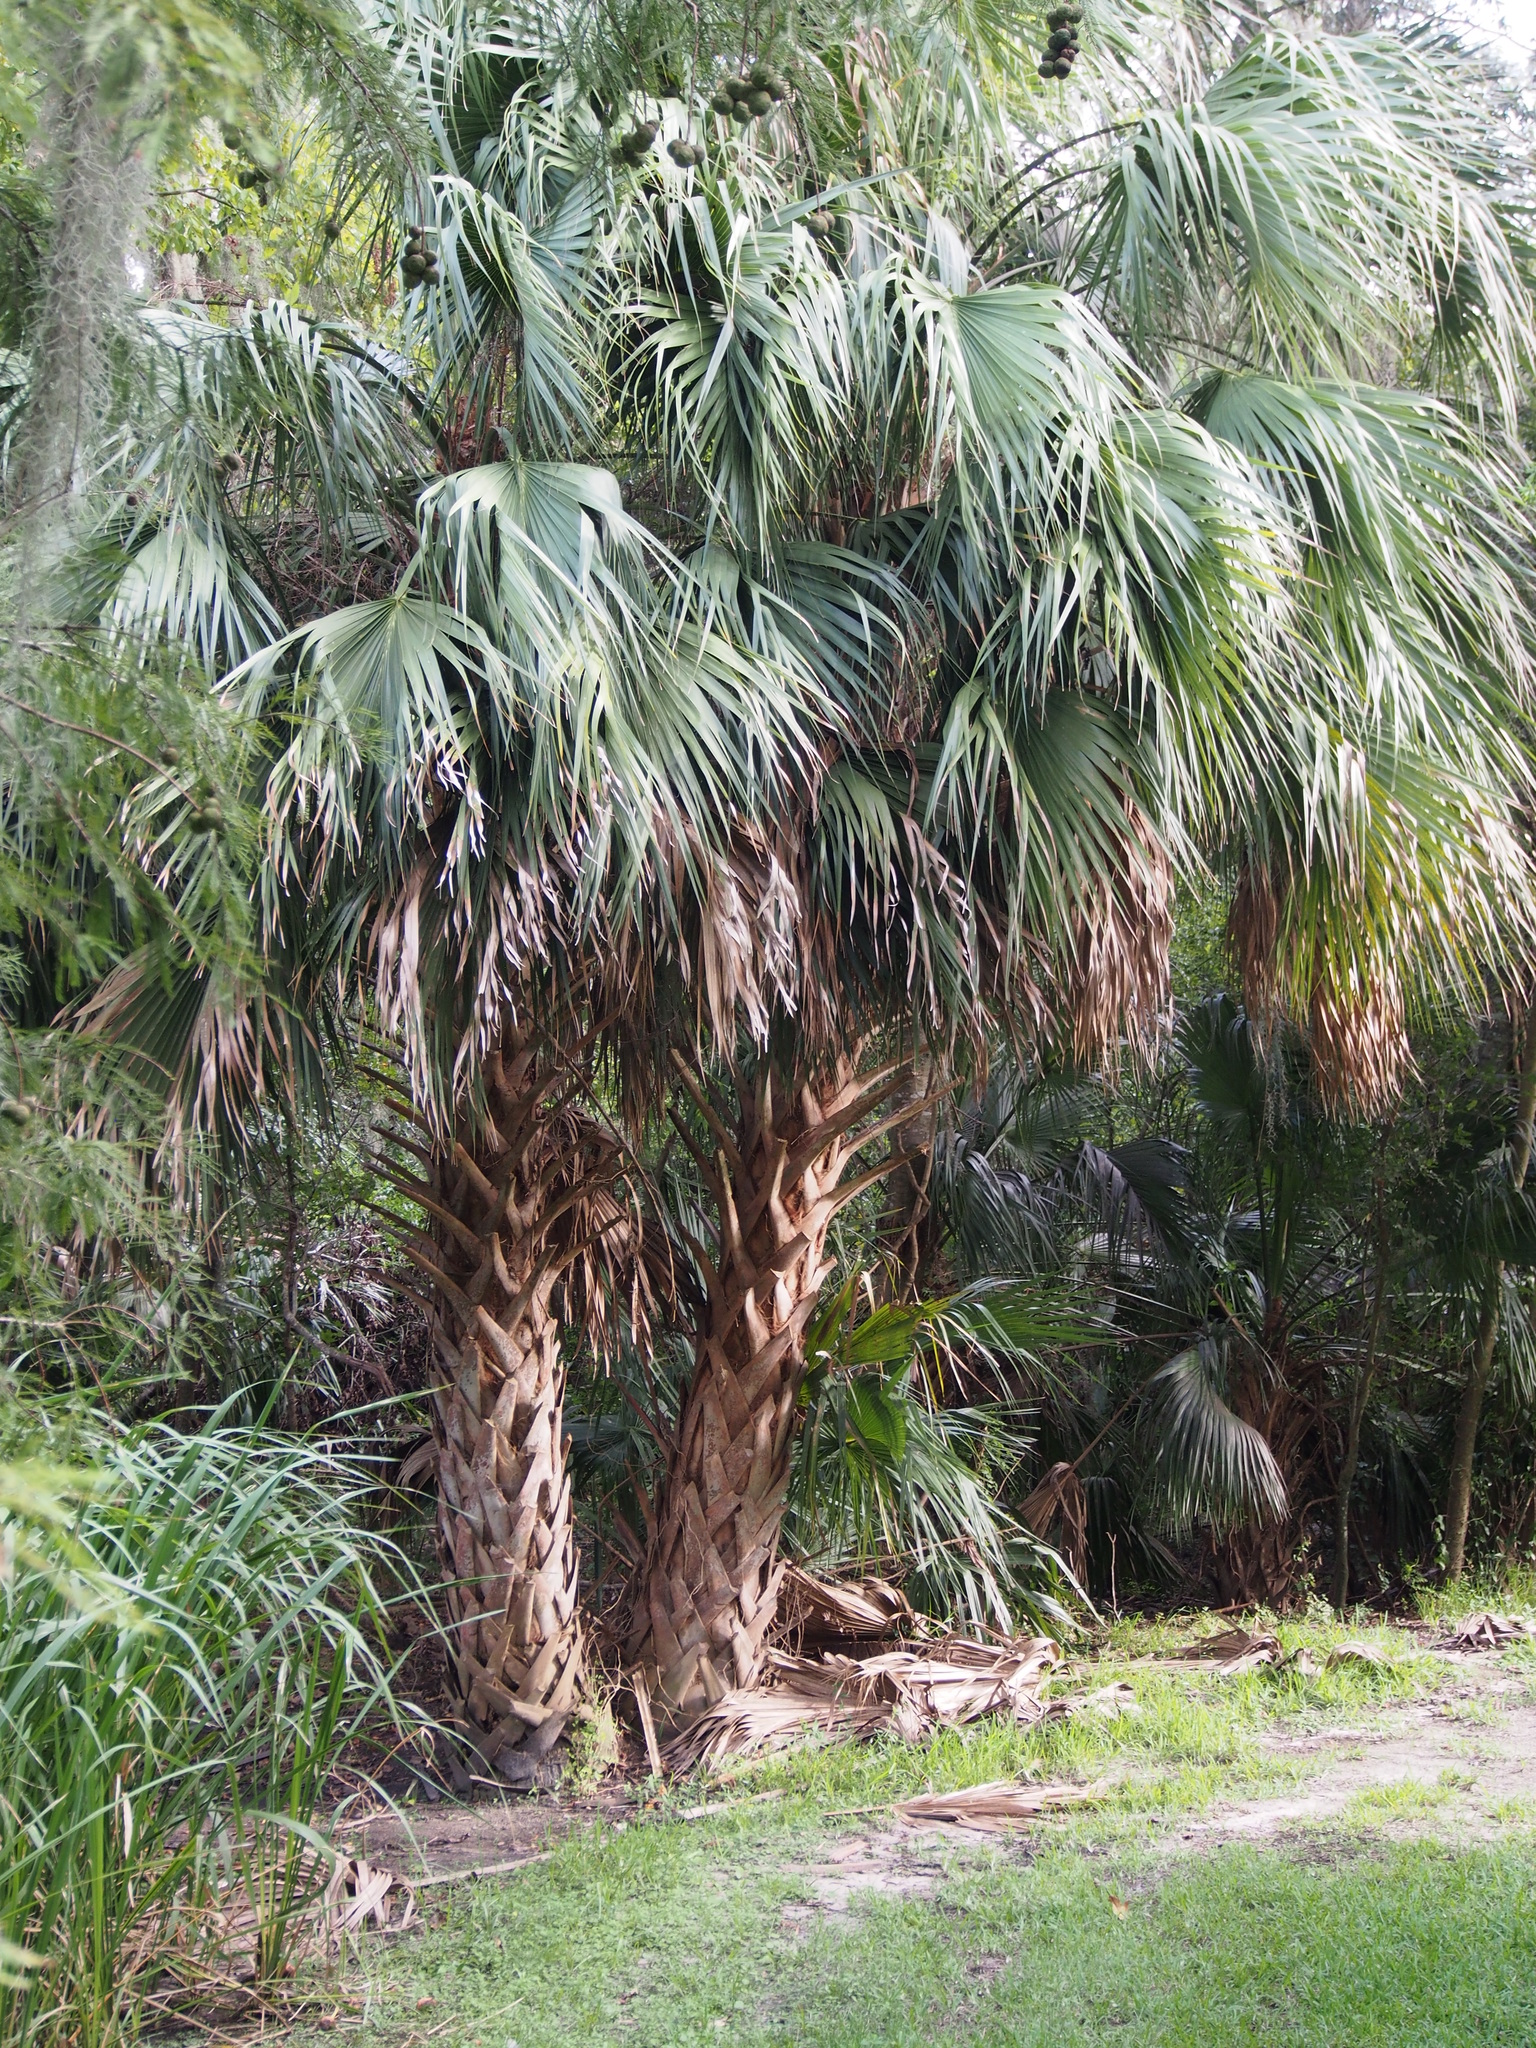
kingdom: Plantae
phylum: Tracheophyta
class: Liliopsida
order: Arecales
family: Arecaceae
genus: Sabal
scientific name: Sabal palmetto
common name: Blue palmetto
